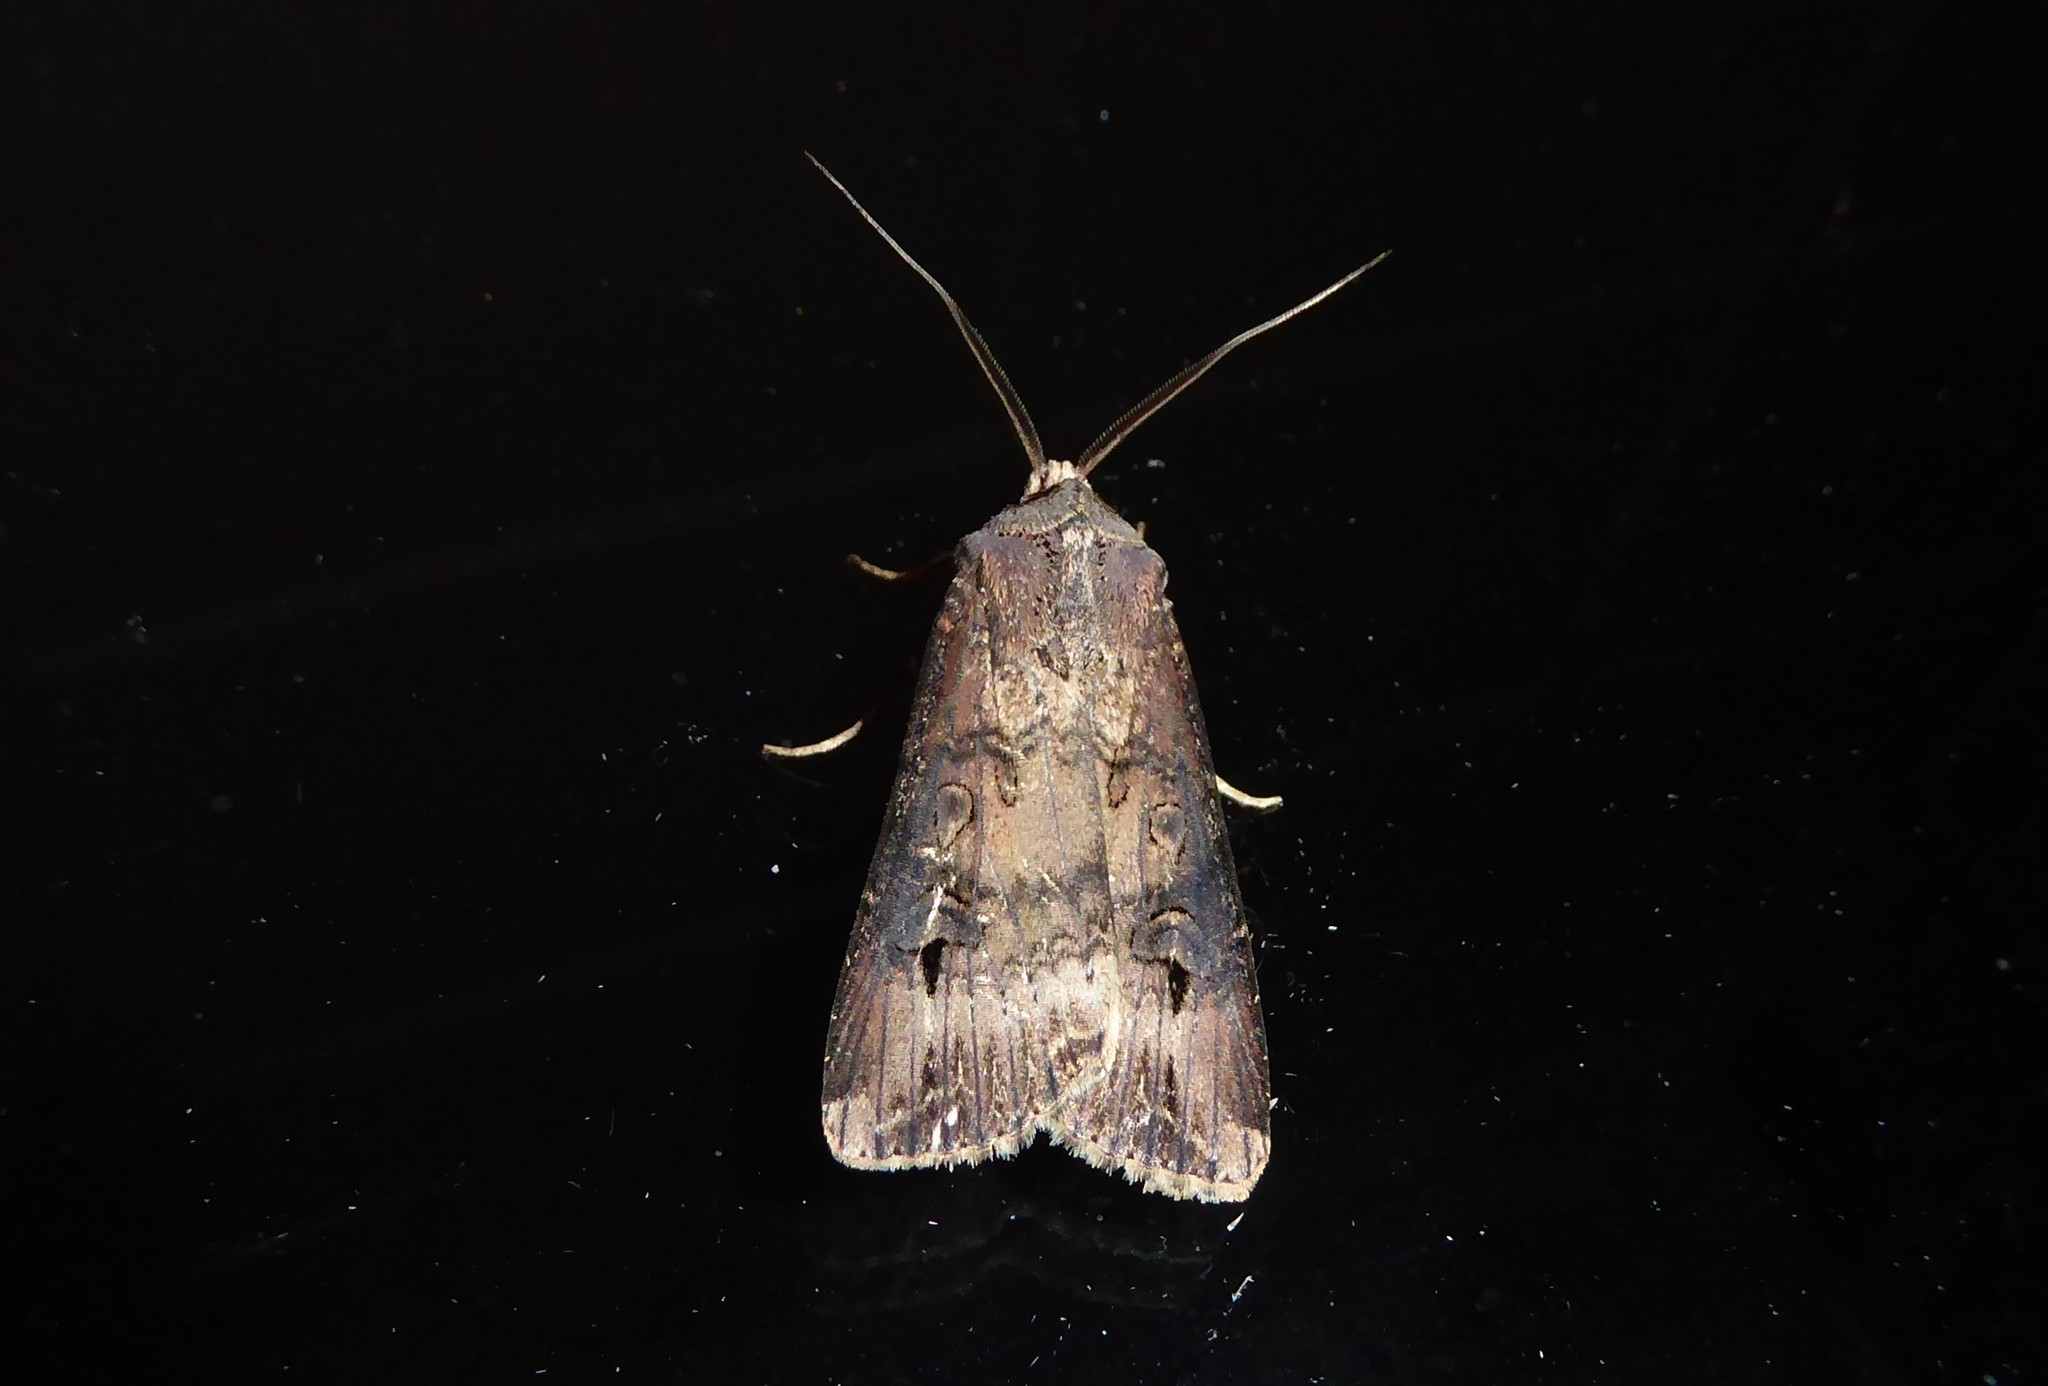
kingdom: Animalia
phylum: Arthropoda
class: Insecta
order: Lepidoptera
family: Noctuidae
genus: Agrotis
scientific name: Agrotis ipsilon
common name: Dark sword-grass
